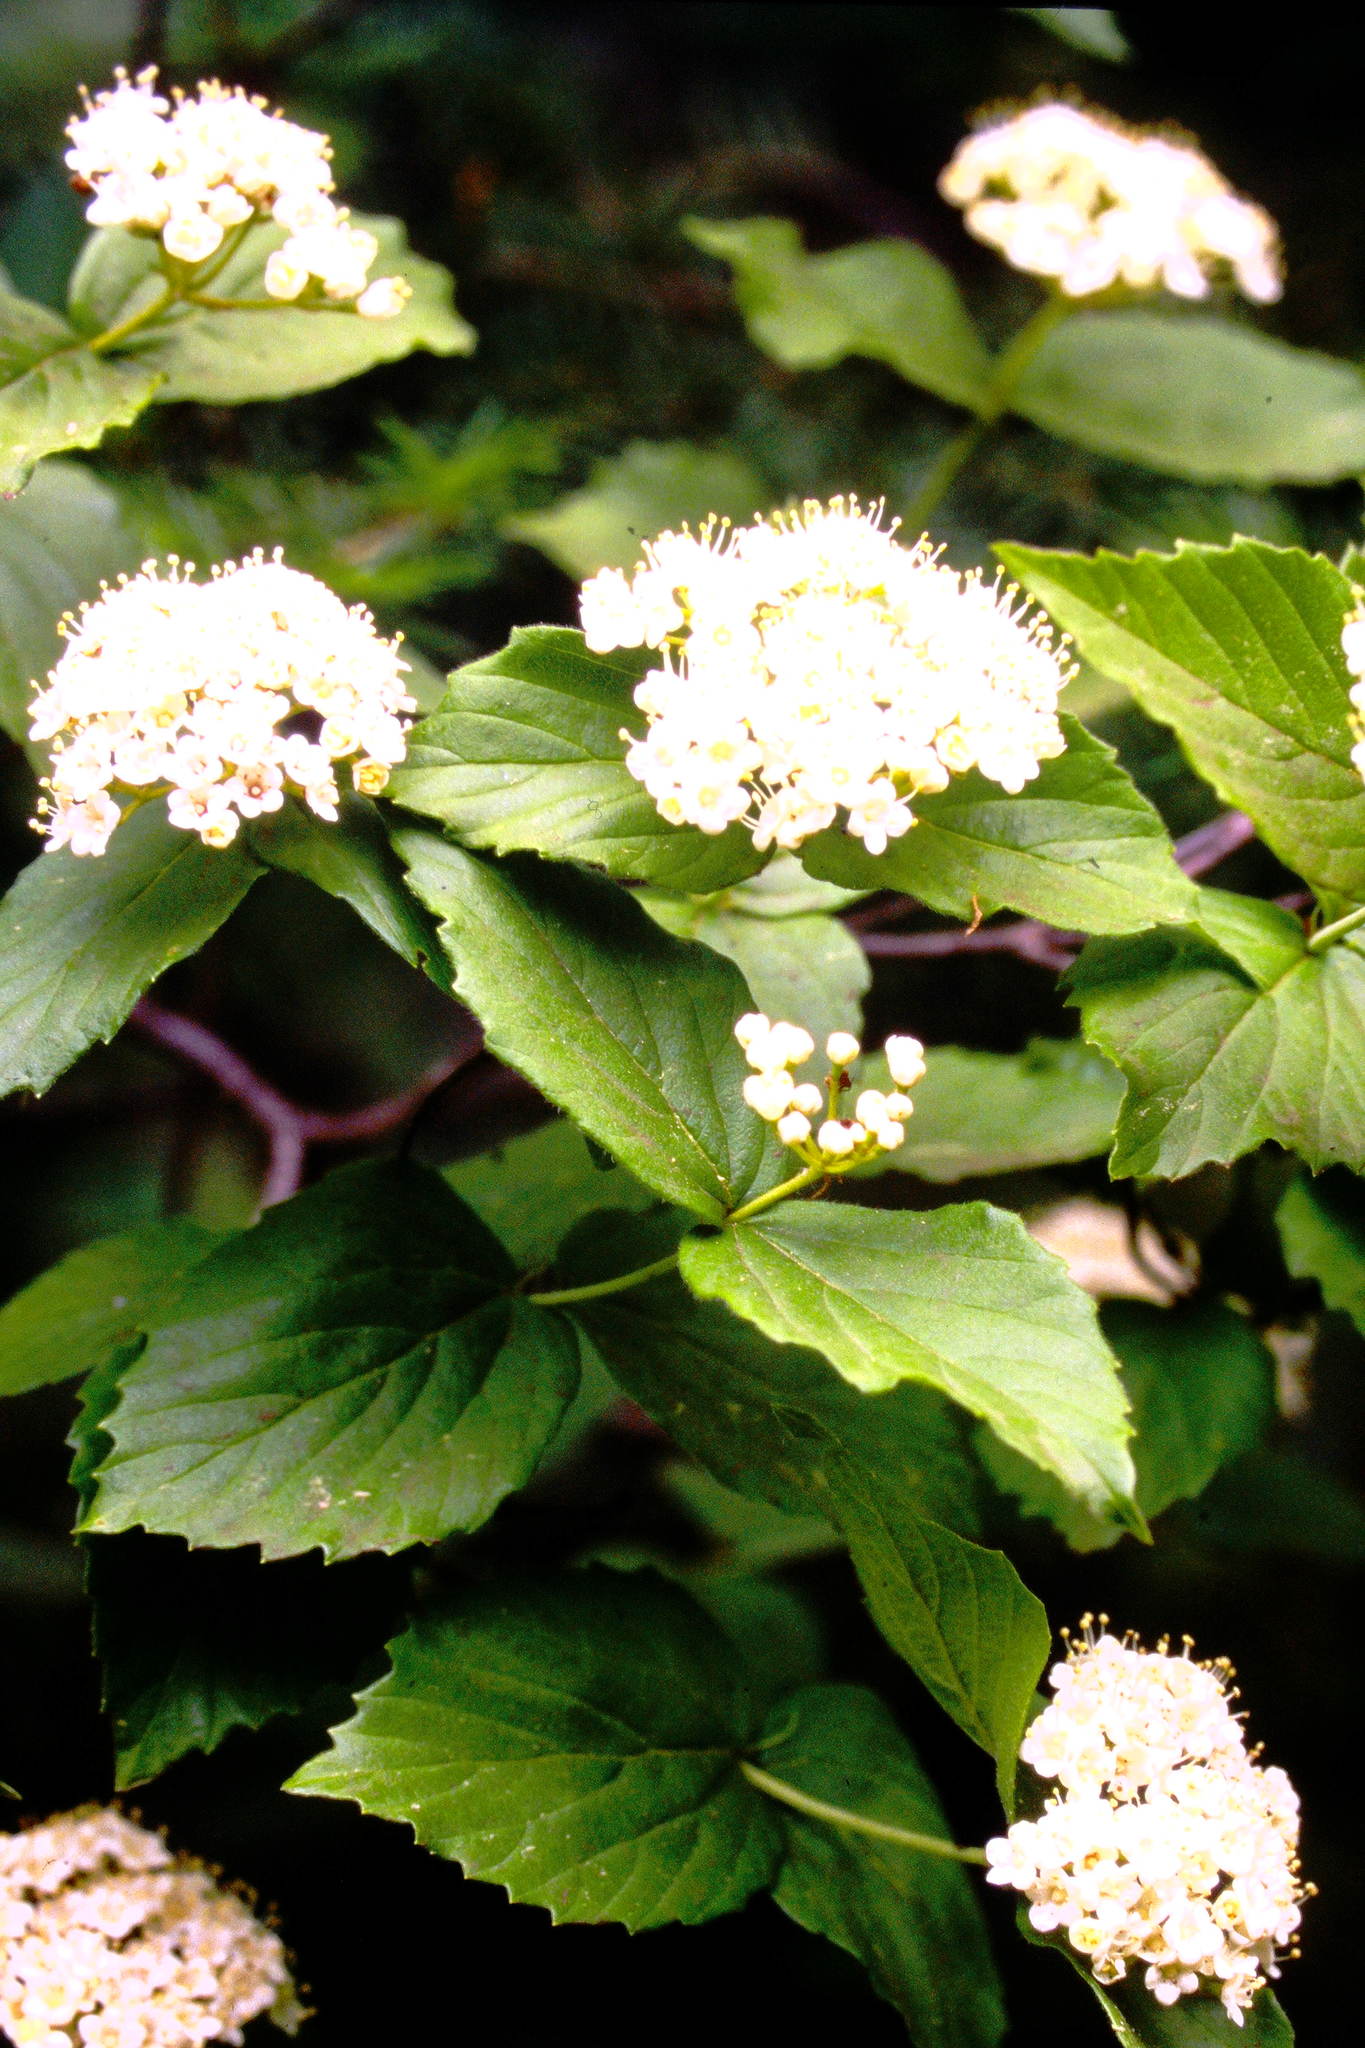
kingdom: Plantae
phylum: Tracheophyta
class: Magnoliopsida
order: Dipsacales
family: Viburnaceae
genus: Viburnum
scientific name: Viburnum rafinesqueanum
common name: Downy arrow-wood
